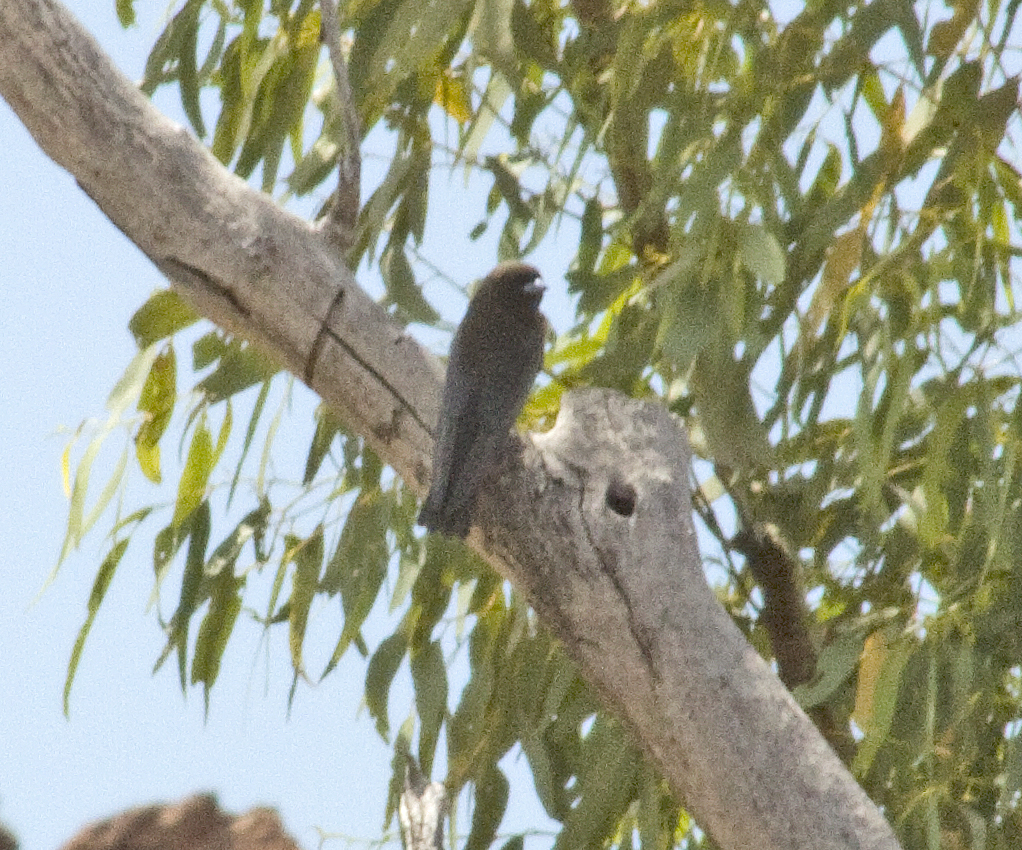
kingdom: Animalia
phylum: Chordata
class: Aves
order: Passeriformes
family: Artamidae
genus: Artamus
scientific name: Artamus minor
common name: Little woodswallow
